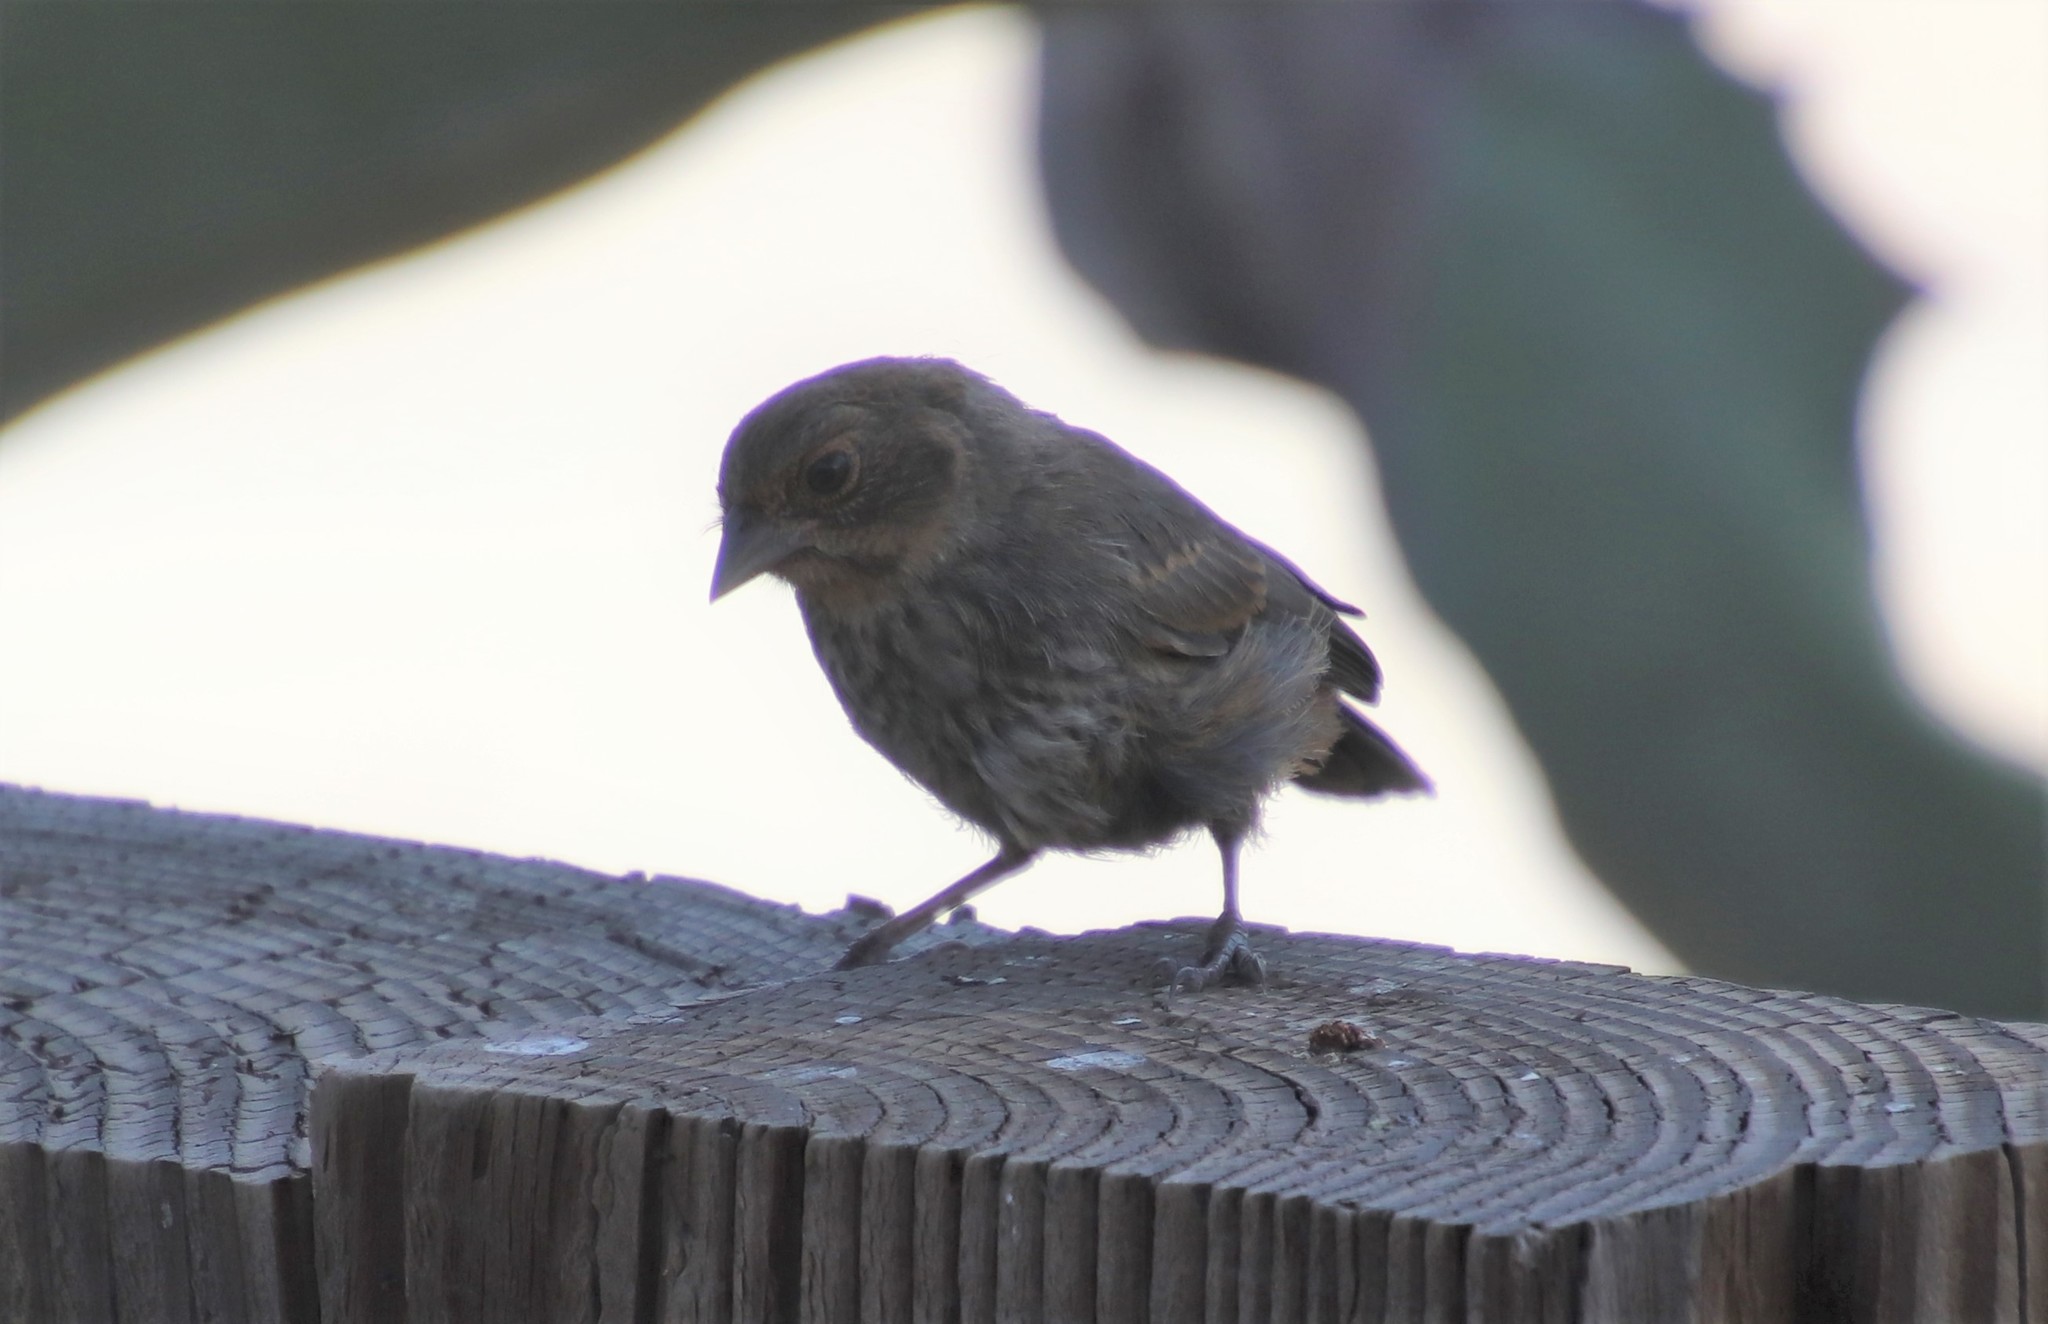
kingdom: Animalia
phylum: Chordata
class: Aves
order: Passeriformes
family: Passerellidae
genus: Melozone
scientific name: Melozone crissalis
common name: California towhee
